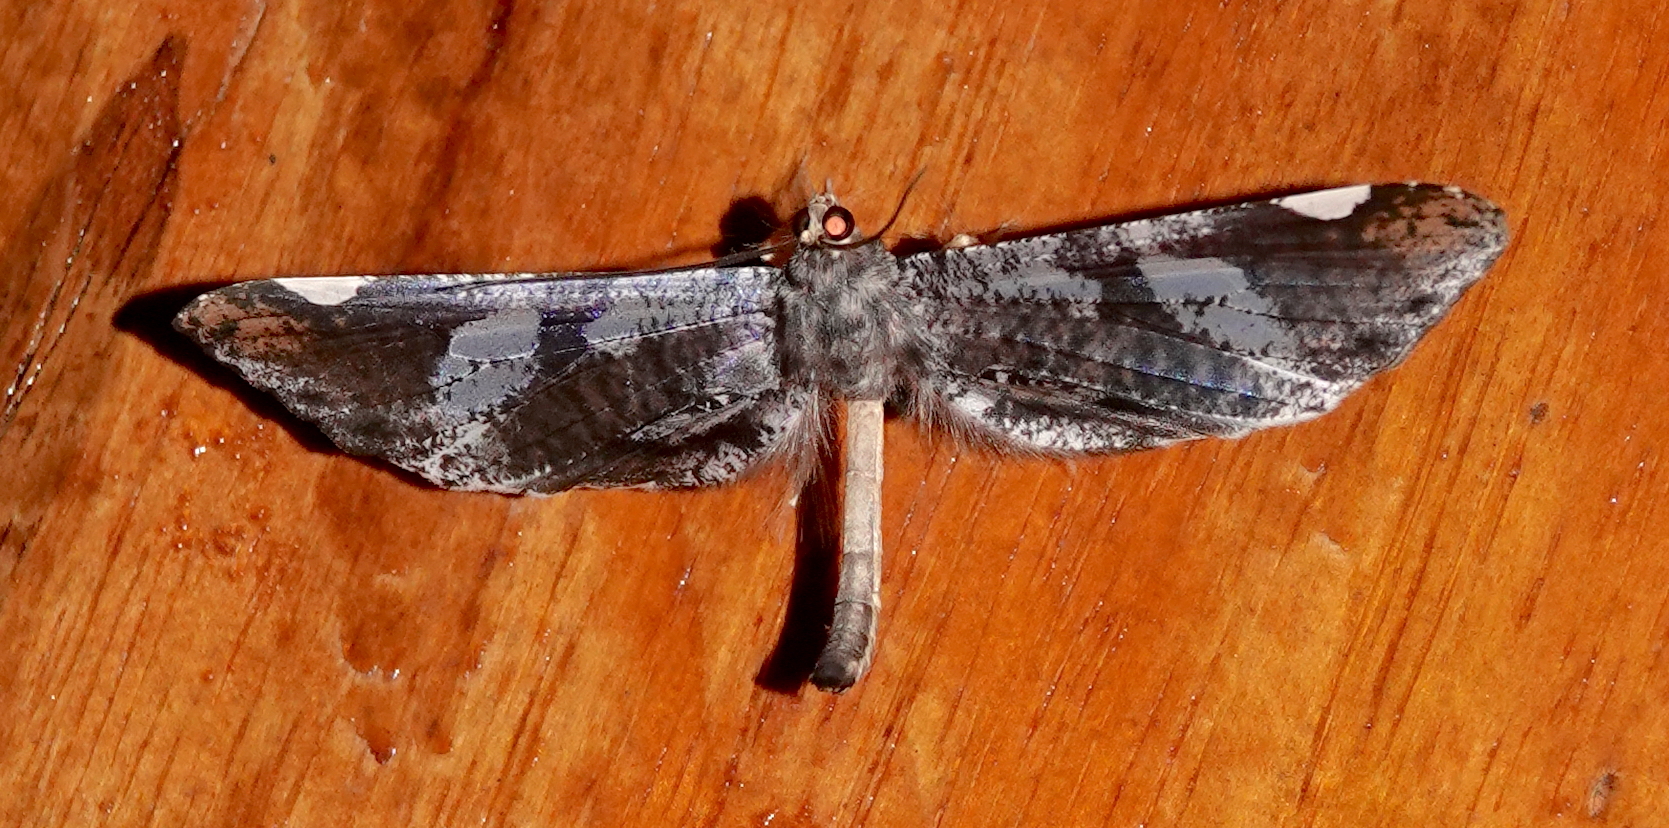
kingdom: Animalia
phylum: Arthropoda
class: Insecta
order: Lepidoptera
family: Hedylidae
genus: Macrosoma
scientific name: Macrosoma hyacinthina
